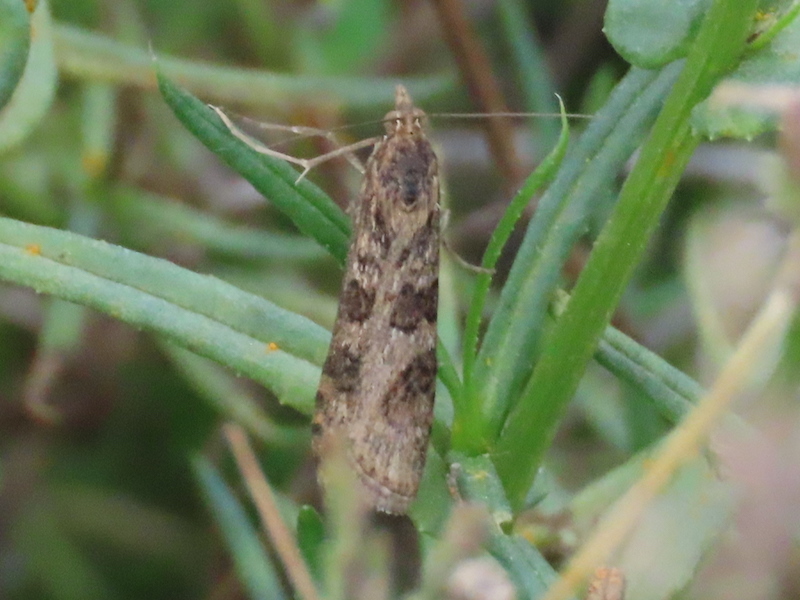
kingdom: Animalia
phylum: Arthropoda
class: Insecta
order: Lepidoptera
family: Crambidae
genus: Nomophila
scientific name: Nomophila noctuella
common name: Rush veneer
